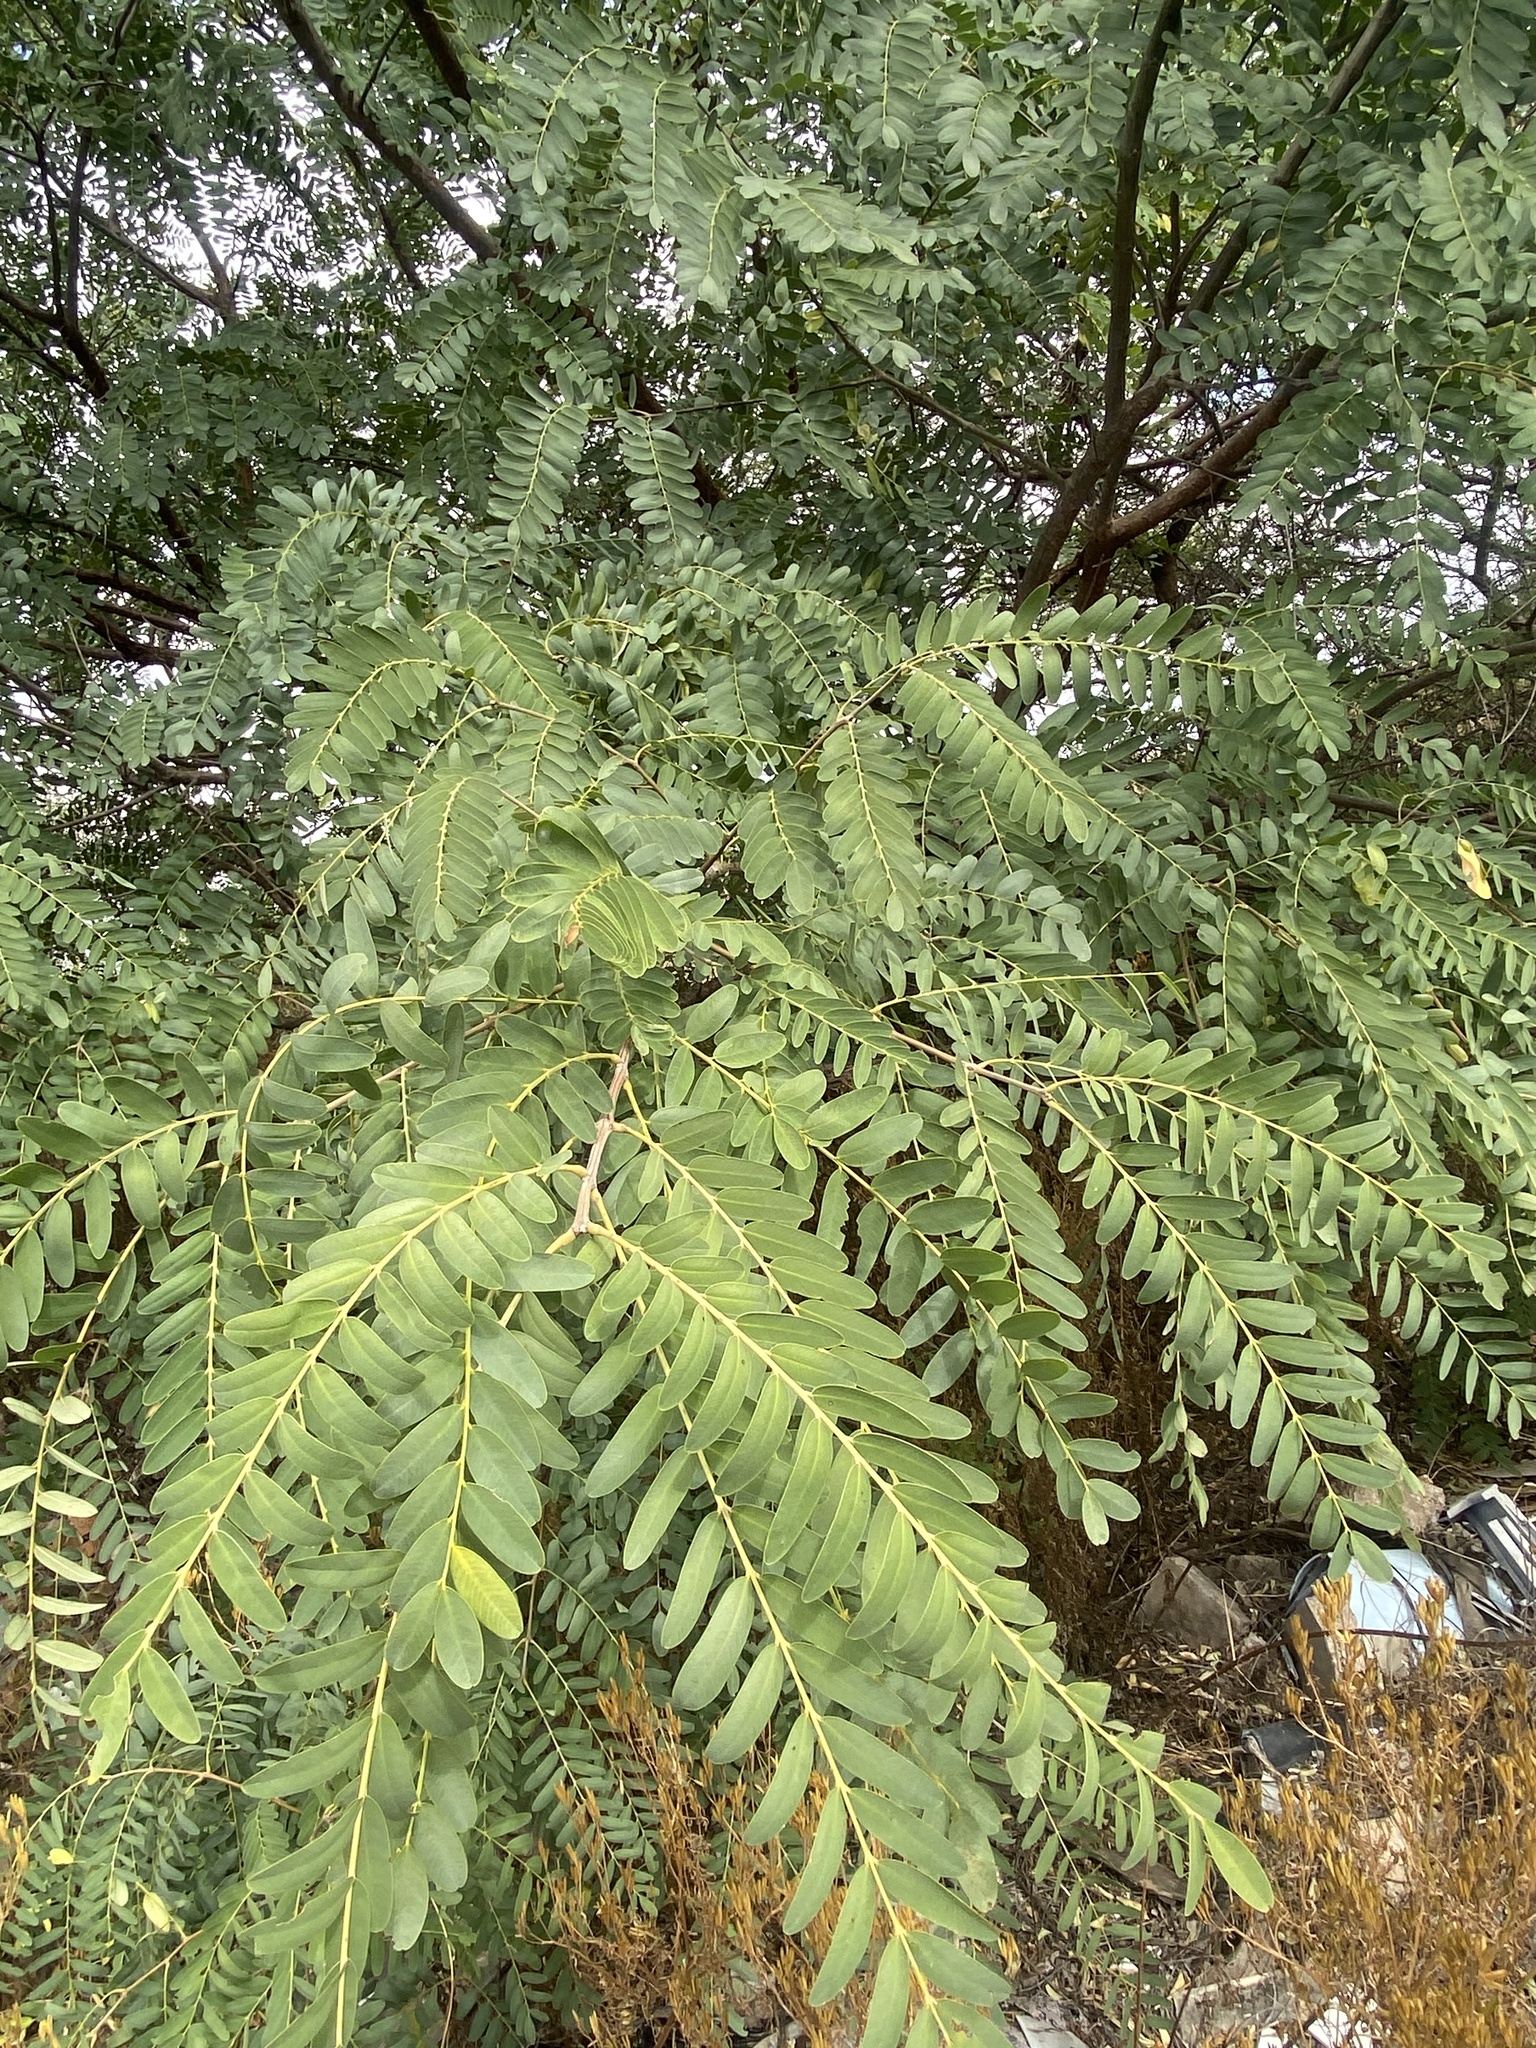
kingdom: Plantae
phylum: Tracheophyta
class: Magnoliopsida
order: Fabales
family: Fabaceae
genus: Tipuana
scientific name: Tipuana tipu
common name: Tiputree
